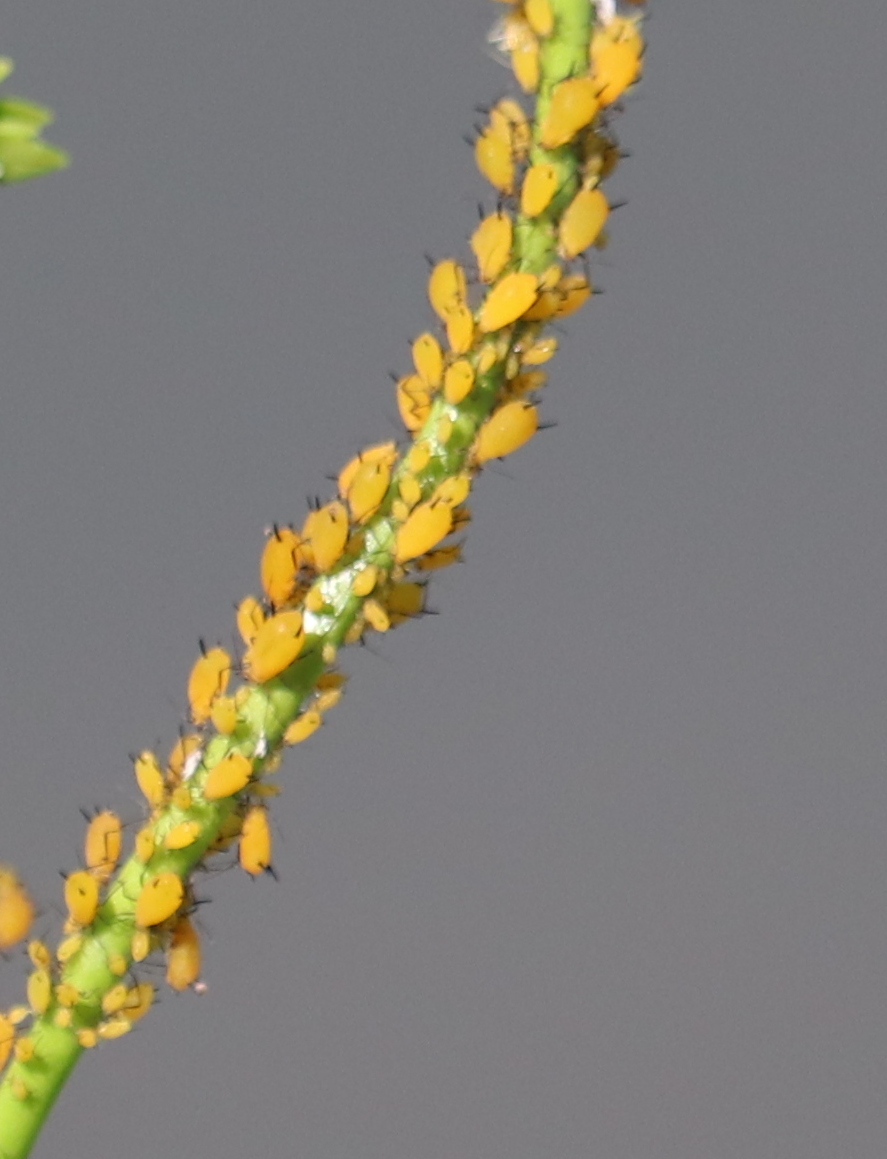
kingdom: Animalia
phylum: Arthropoda
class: Insecta
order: Hemiptera
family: Aphididae
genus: Aphis
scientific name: Aphis nerii
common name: Oleander aphid
